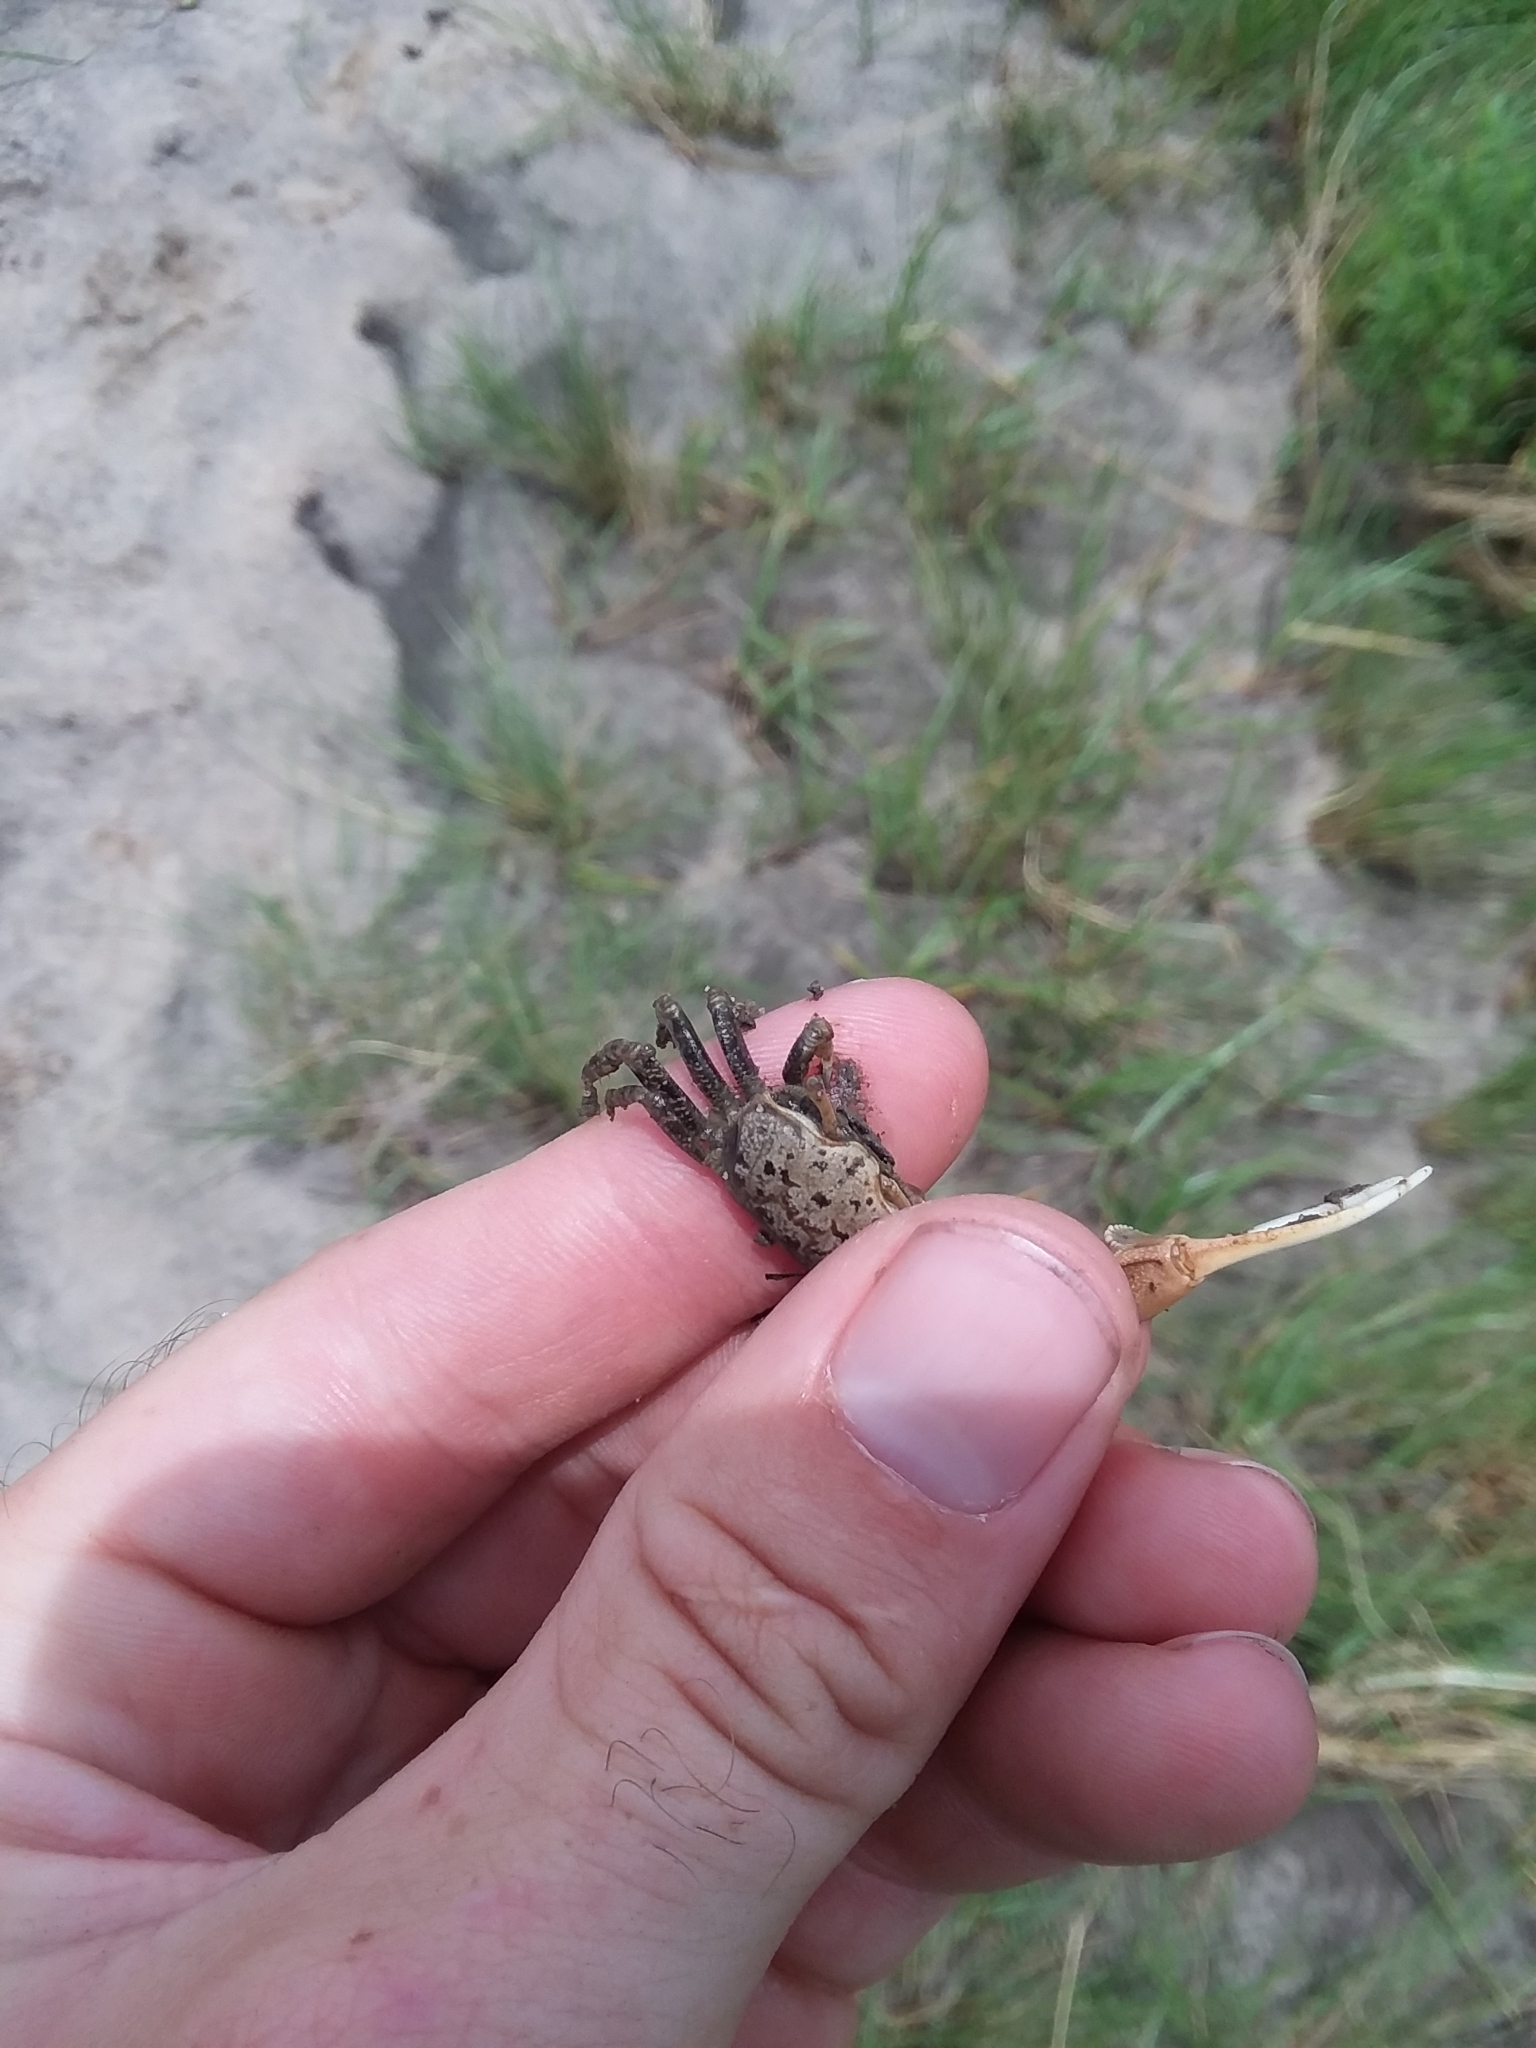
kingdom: Animalia
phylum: Arthropoda
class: Malacostraca
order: Decapoda
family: Ocypodidae
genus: Leptuca
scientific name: Leptuca panacea
